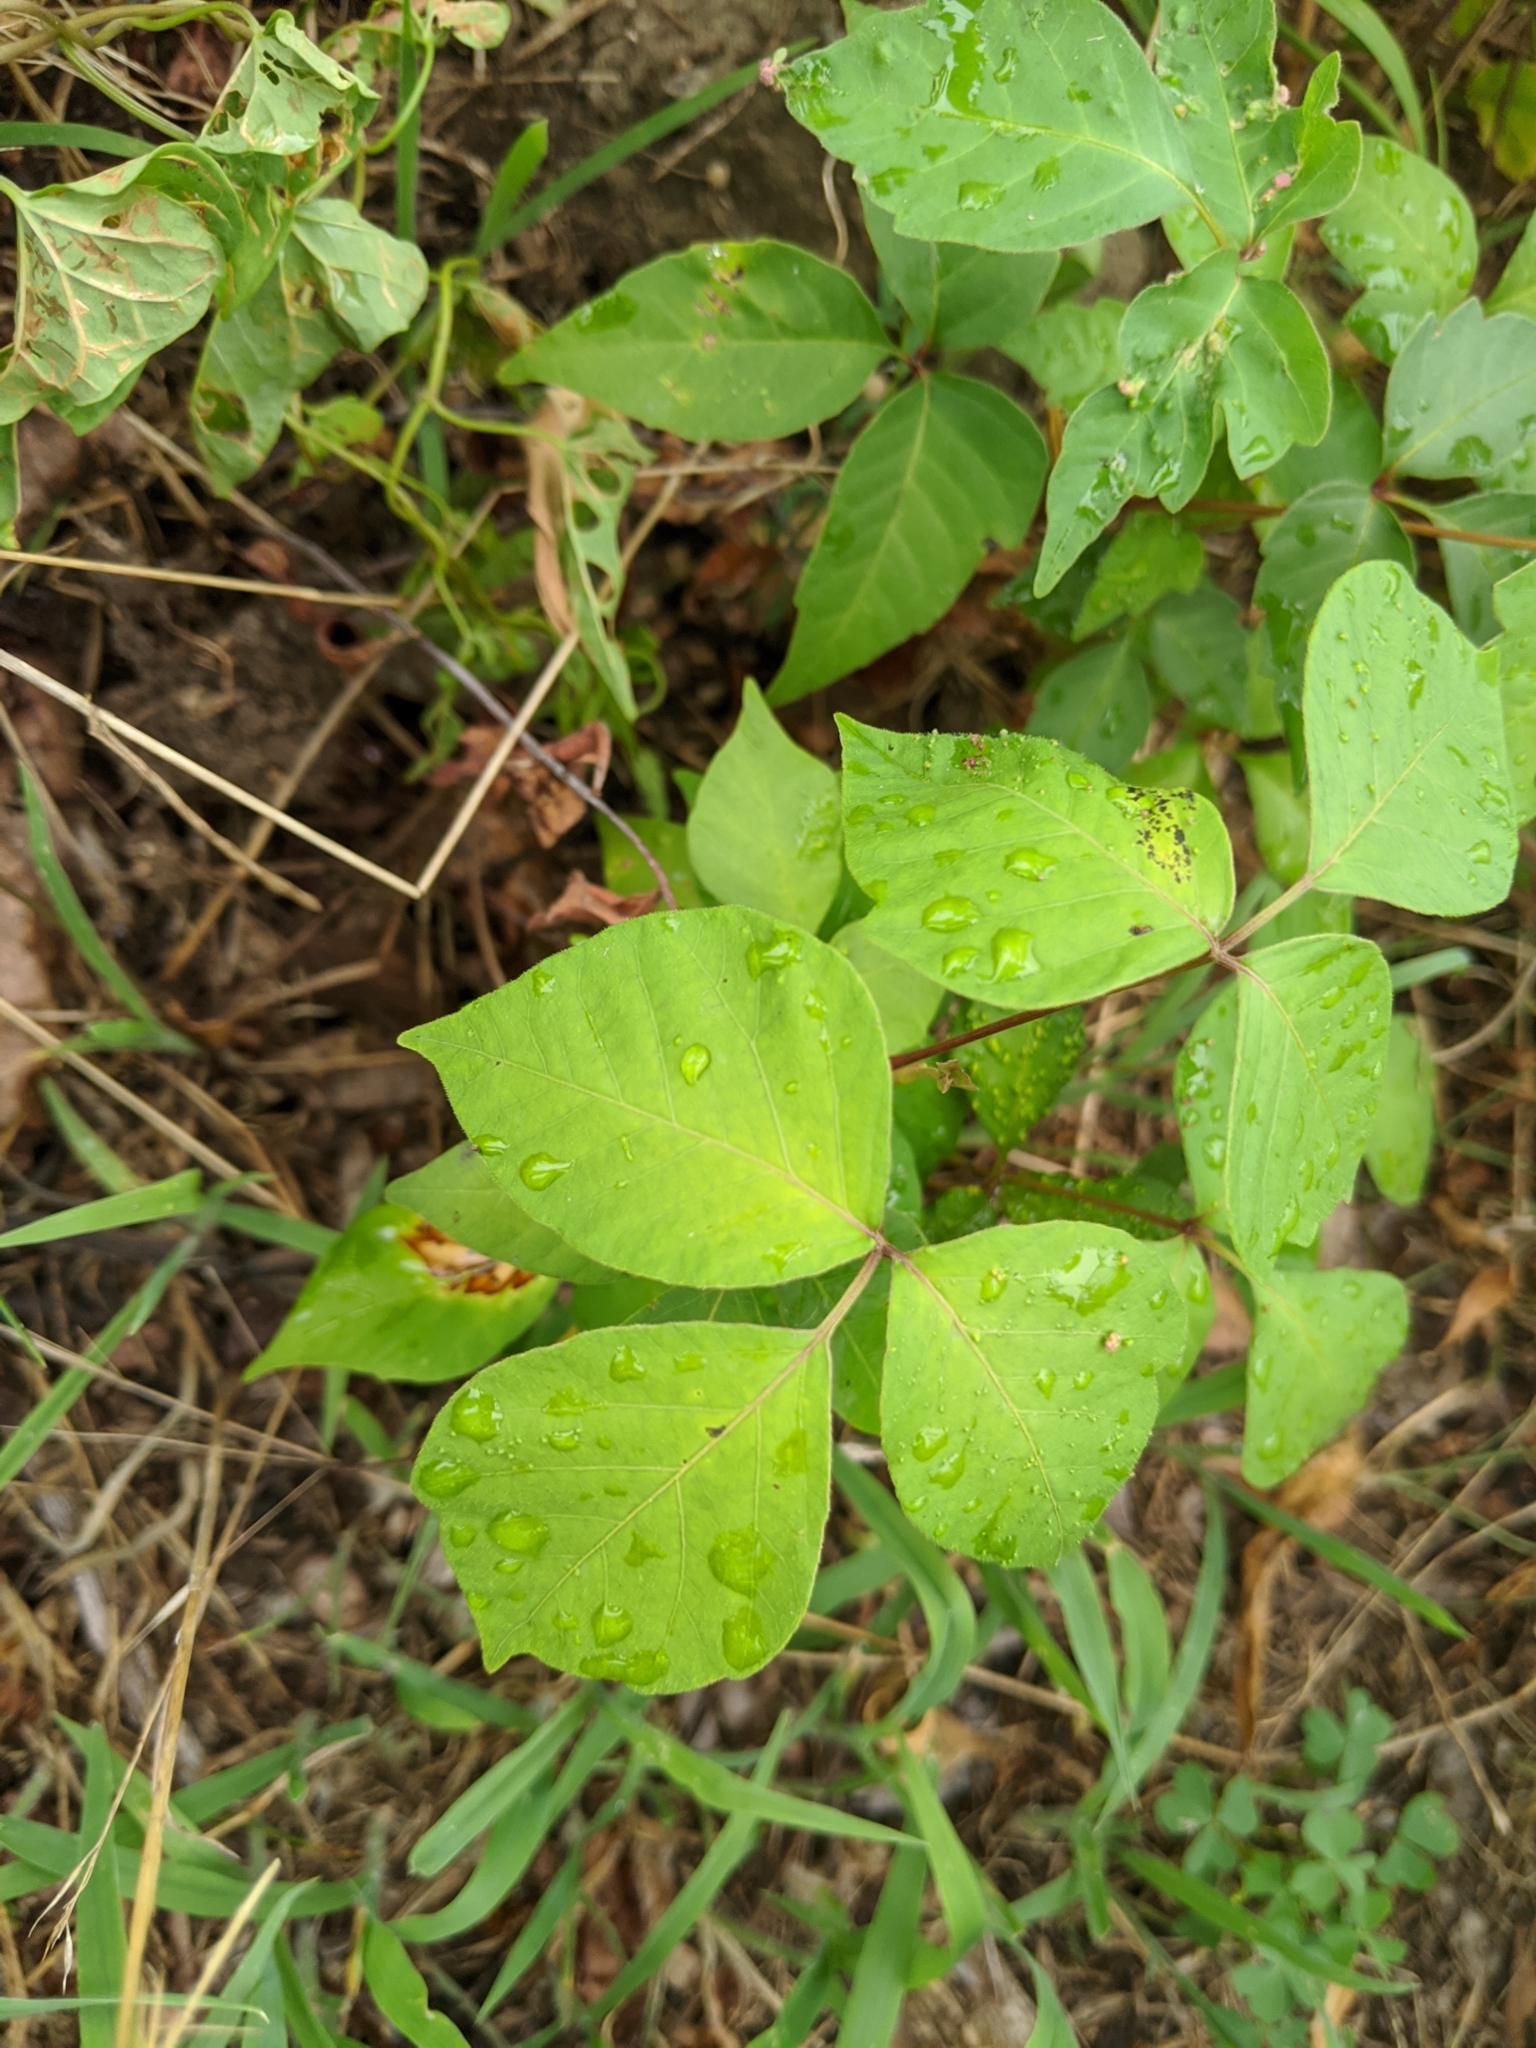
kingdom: Plantae
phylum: Tracheophyta
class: Magnoliopsida
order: Sapindales
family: Anacardiaceae
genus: Toxicodendron
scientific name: Toxicodendron radicans
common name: Poison ivy
